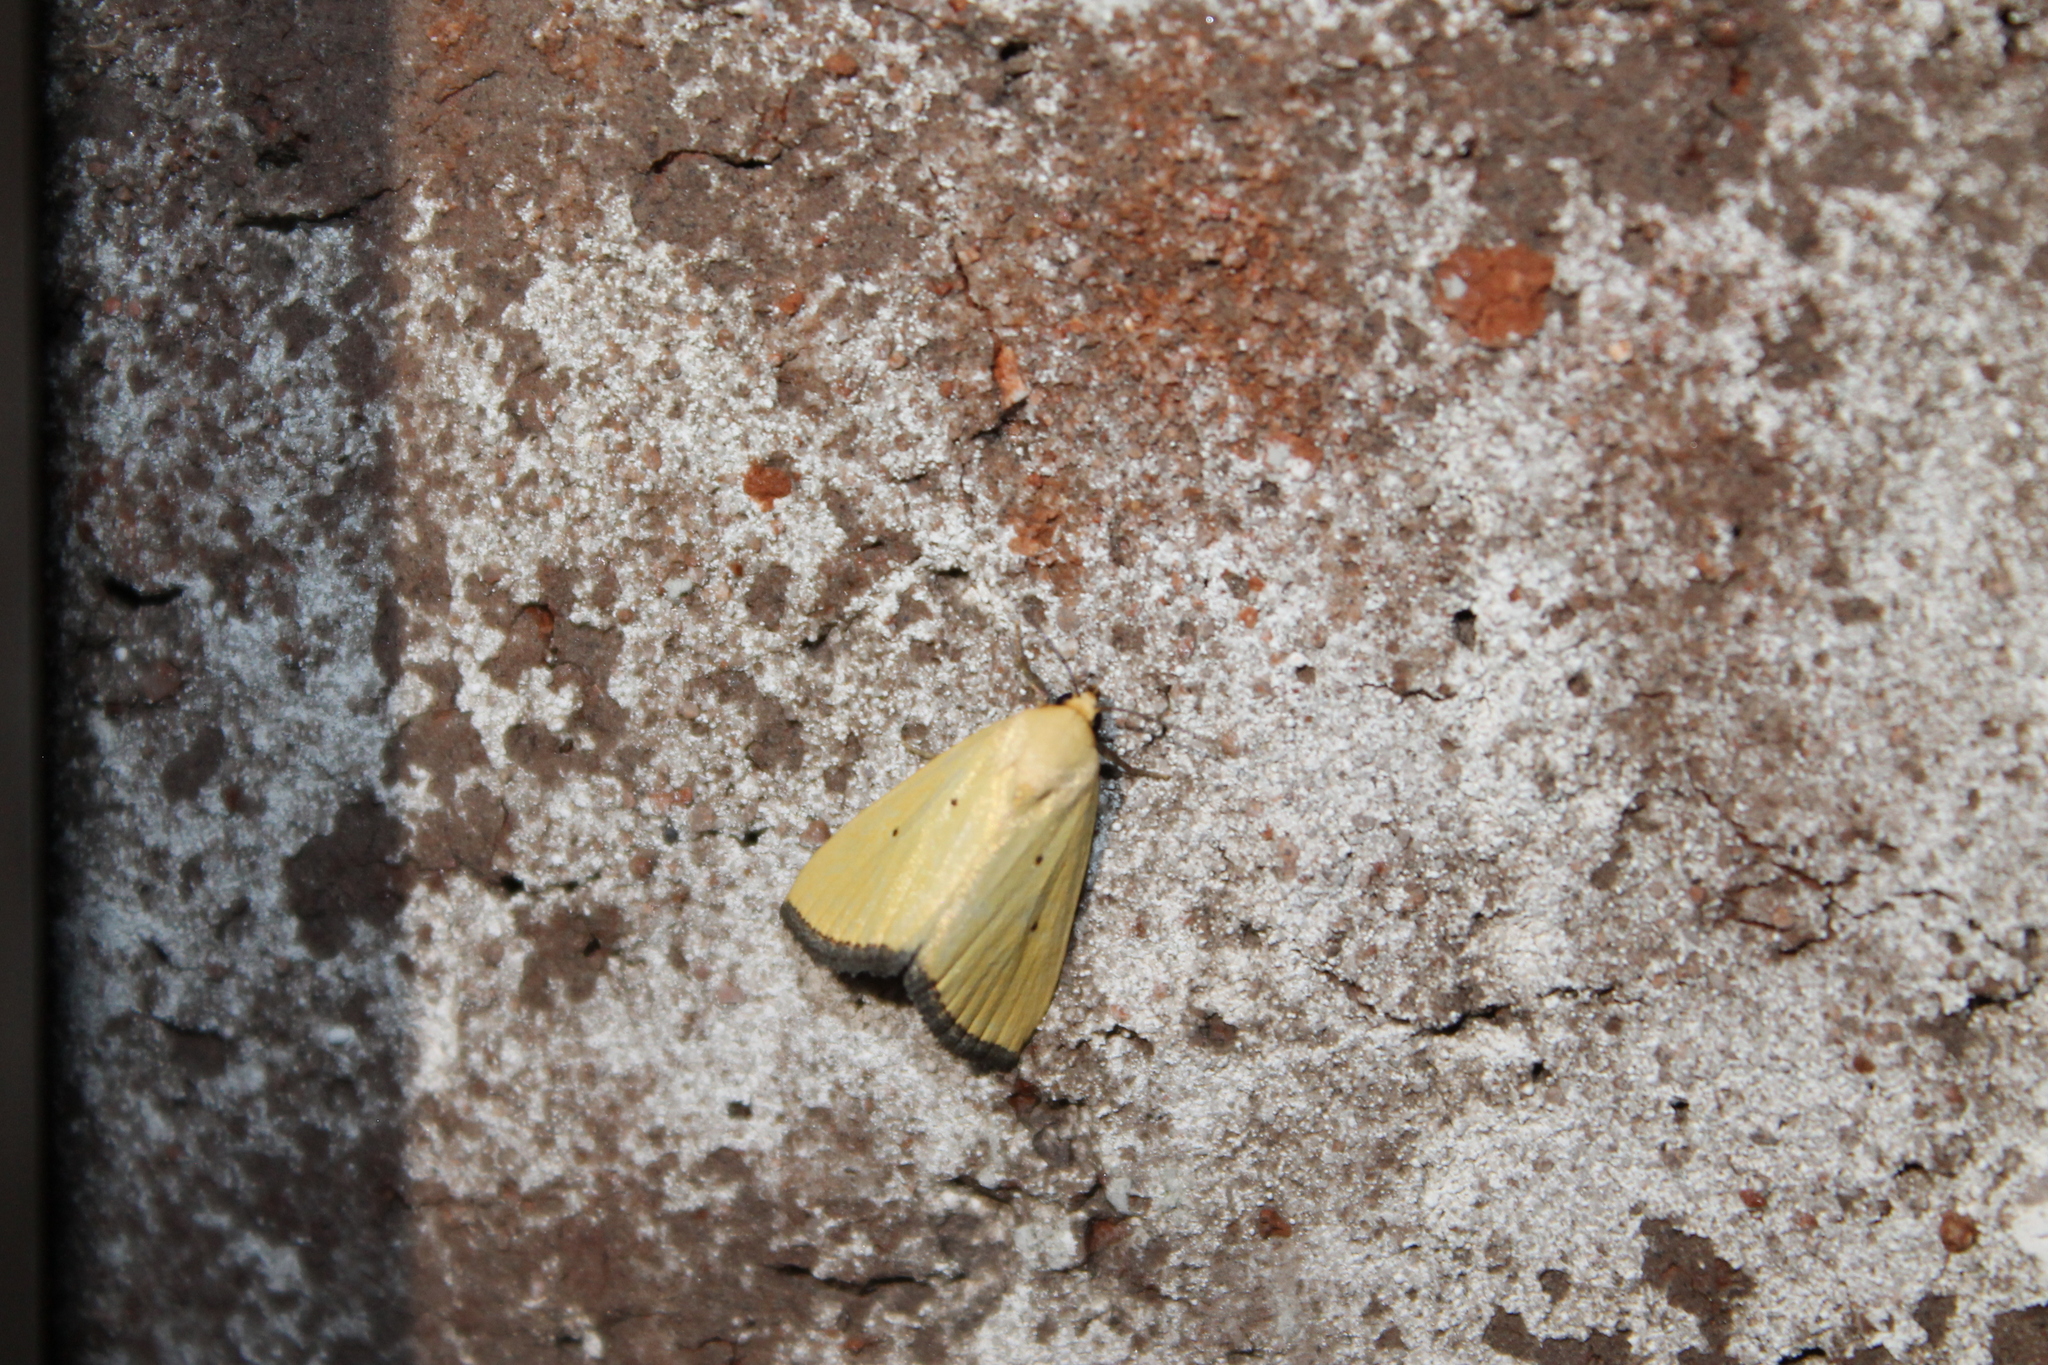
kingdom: Animalia
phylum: Arthropoda
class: Insecta
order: Lepidoptera
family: Noctuidae
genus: Marimatha
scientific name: Marimatha nigrofimbria
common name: Black-bordered lemon moth
